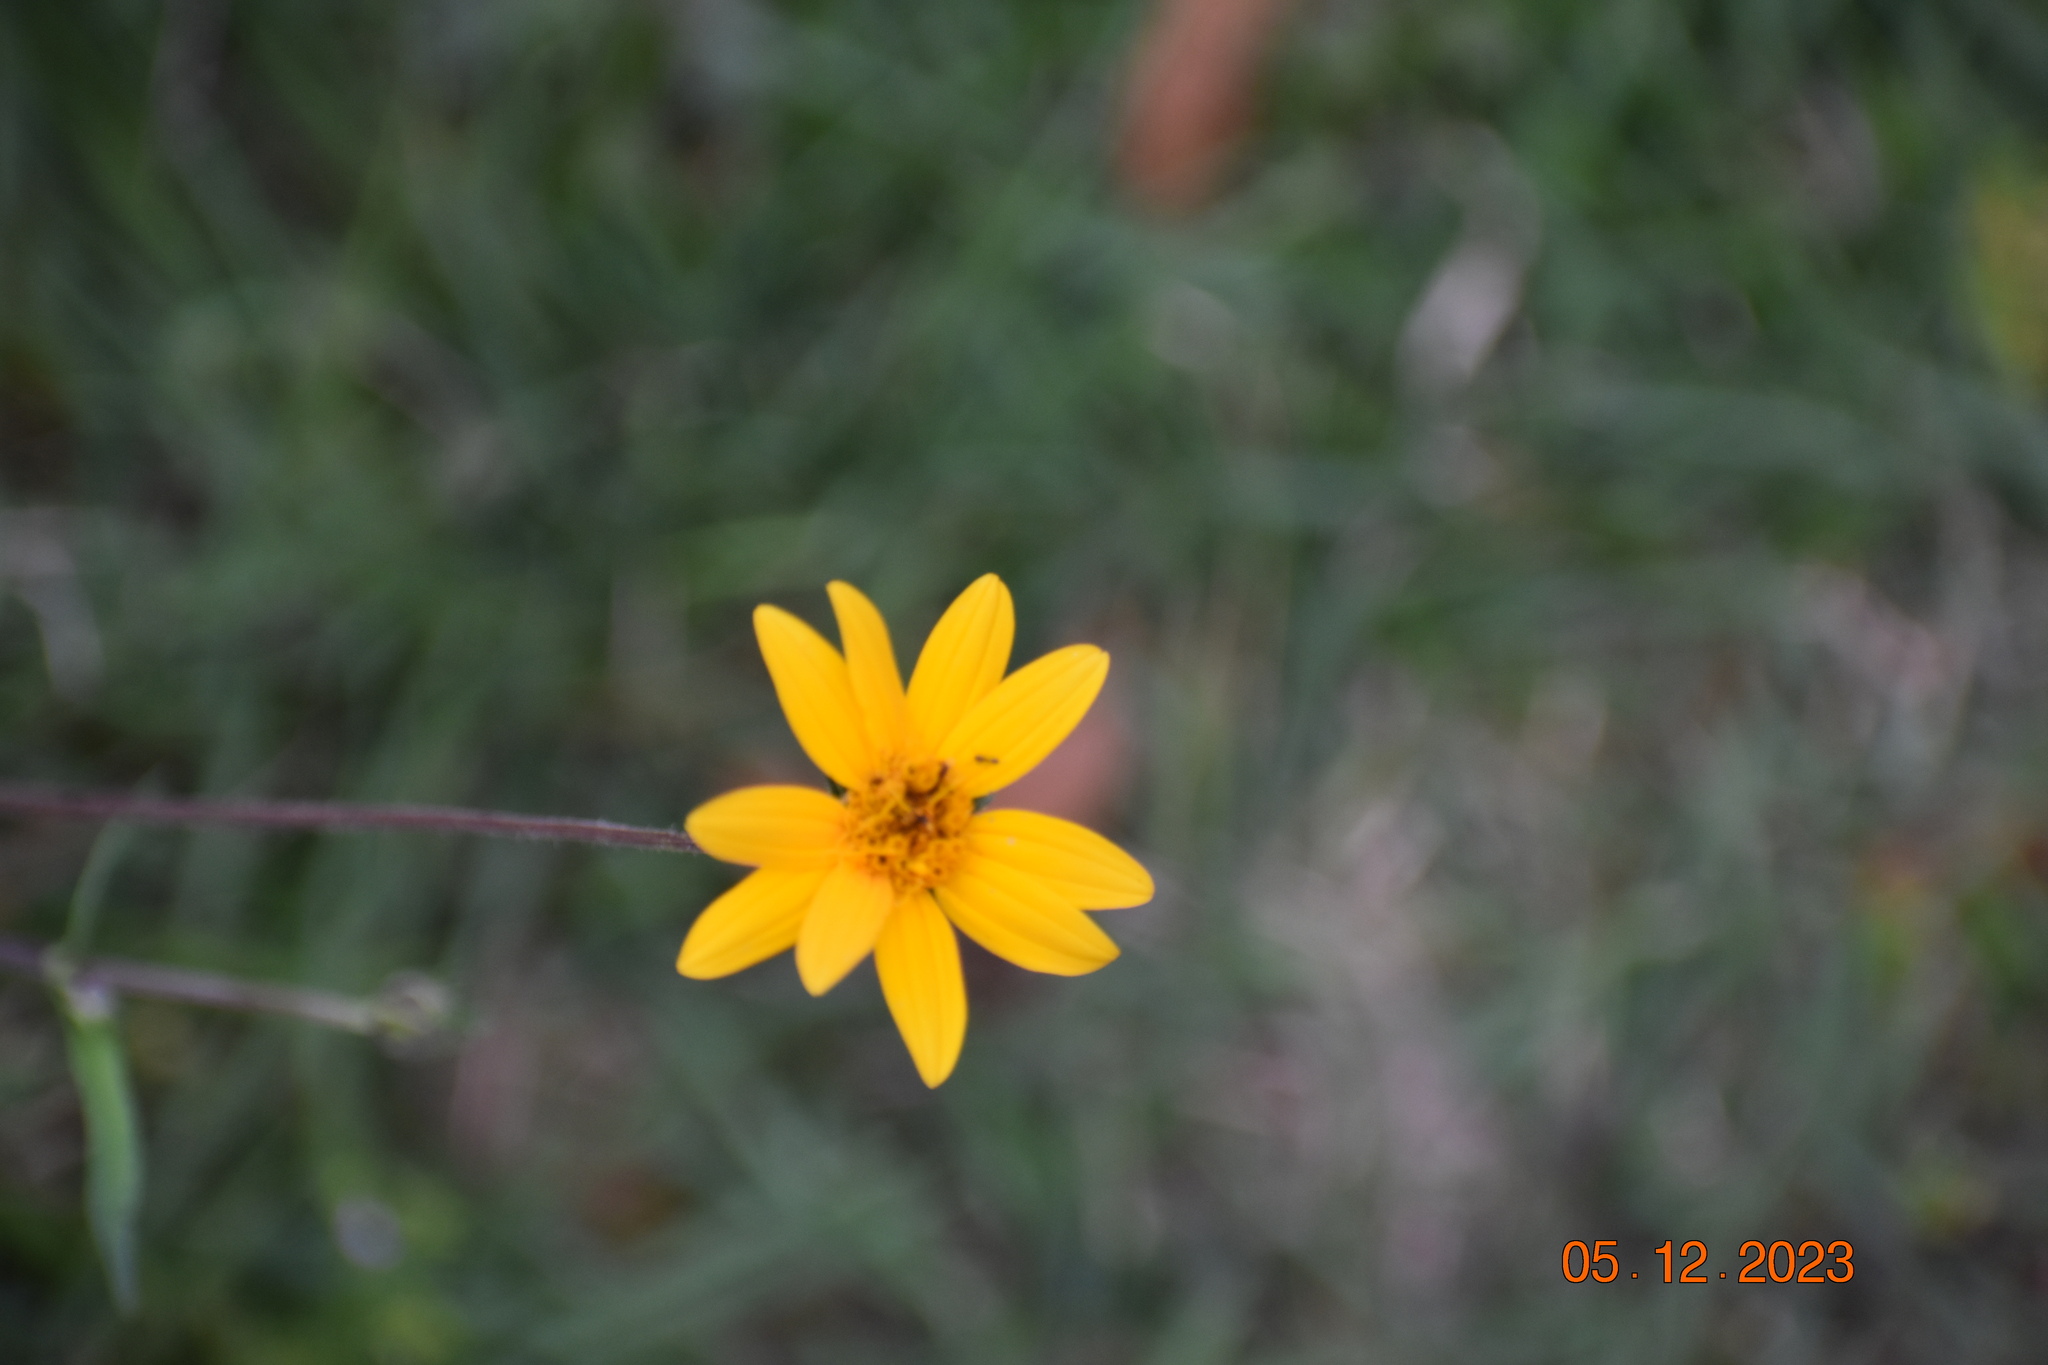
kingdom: Plantae
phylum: Tracheophyta
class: Magnoliopsida
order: Asterales
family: Asteraceae
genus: Wedelia
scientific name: Wedelia acapulcensis
